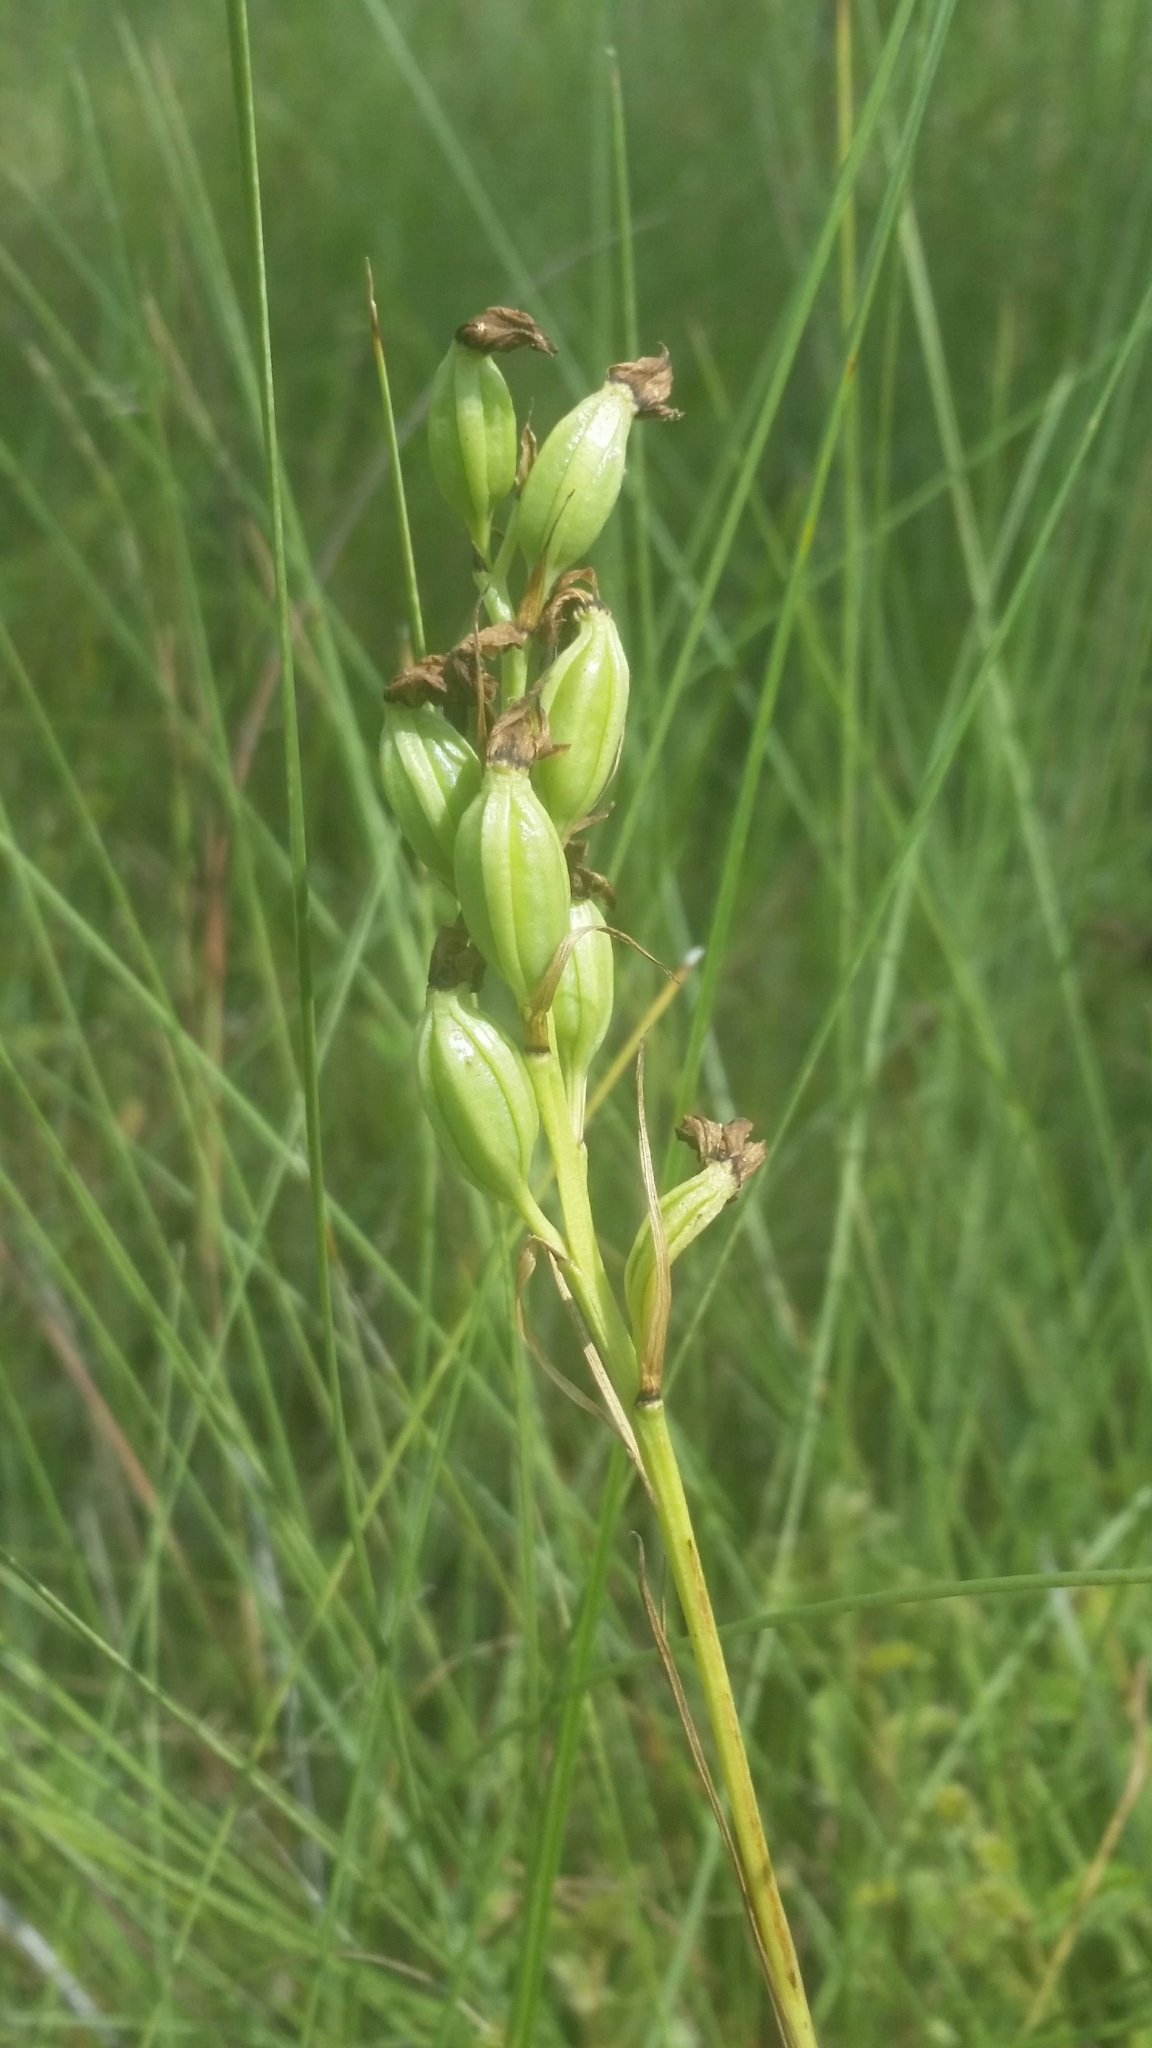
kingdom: Plantae
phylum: Tracheophyta
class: Liliopsida
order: Asparagales
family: Orchidaceae
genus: Eulophia
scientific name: Eulophia ecristata
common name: Giant orchid
